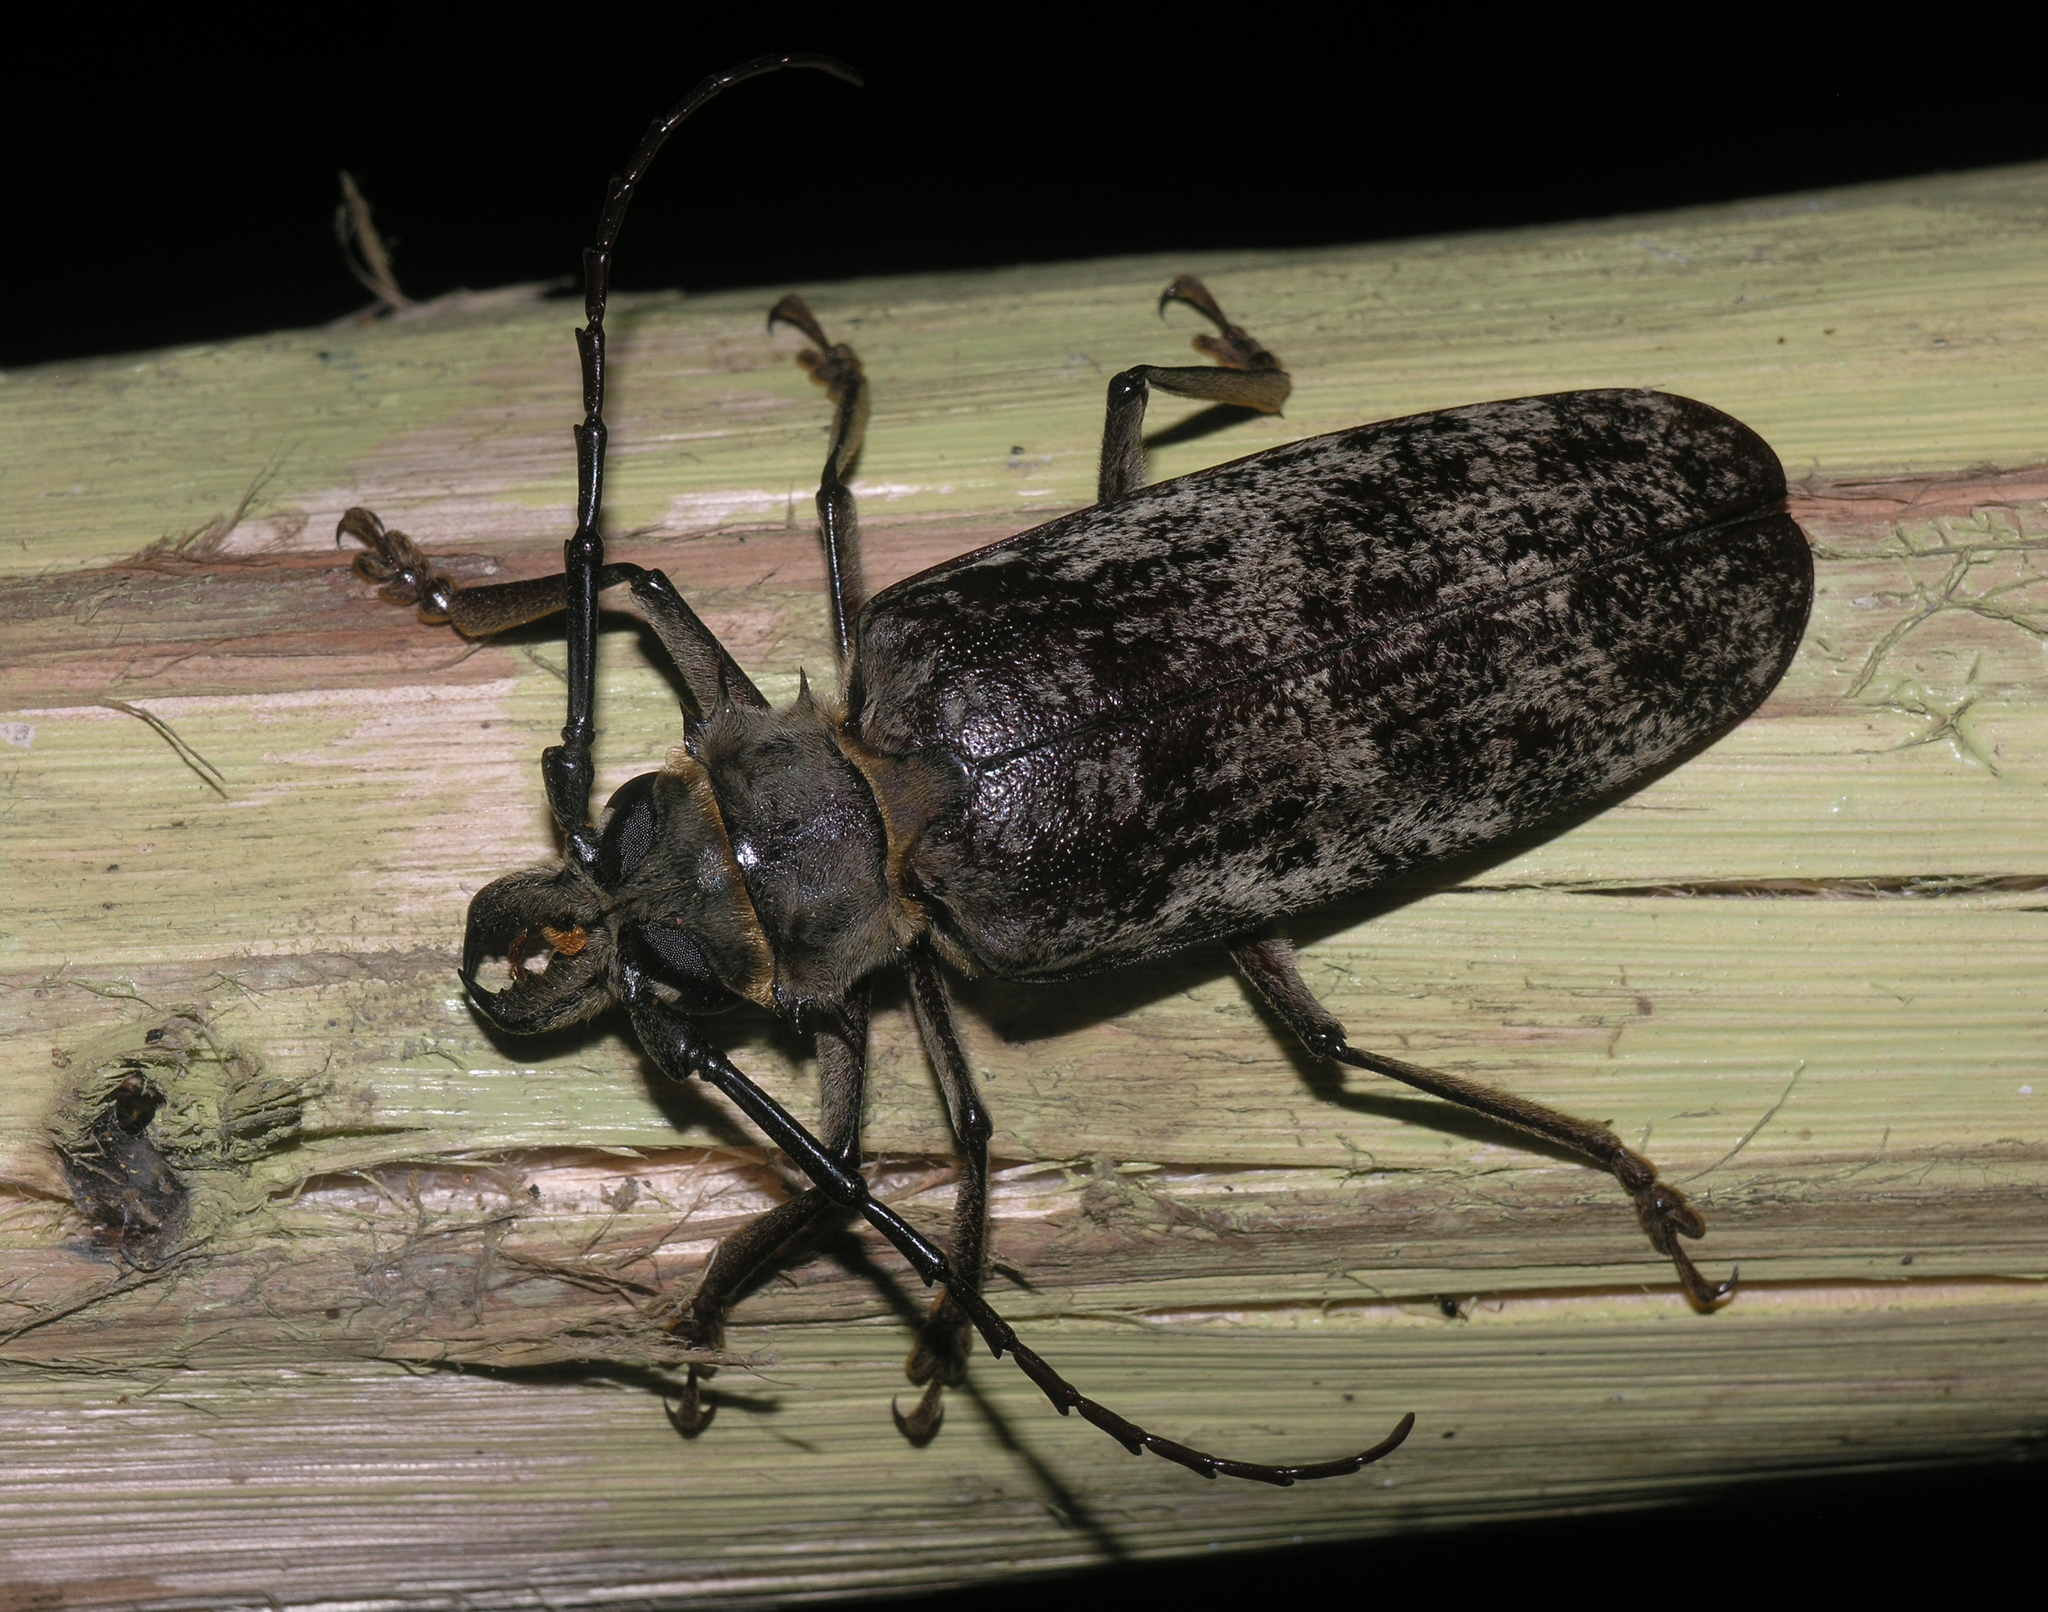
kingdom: Animalia
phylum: Arthropoda
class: Insecta
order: Coleoptera
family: Cerambycidae
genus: Tithoes
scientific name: Tithoes confinis
